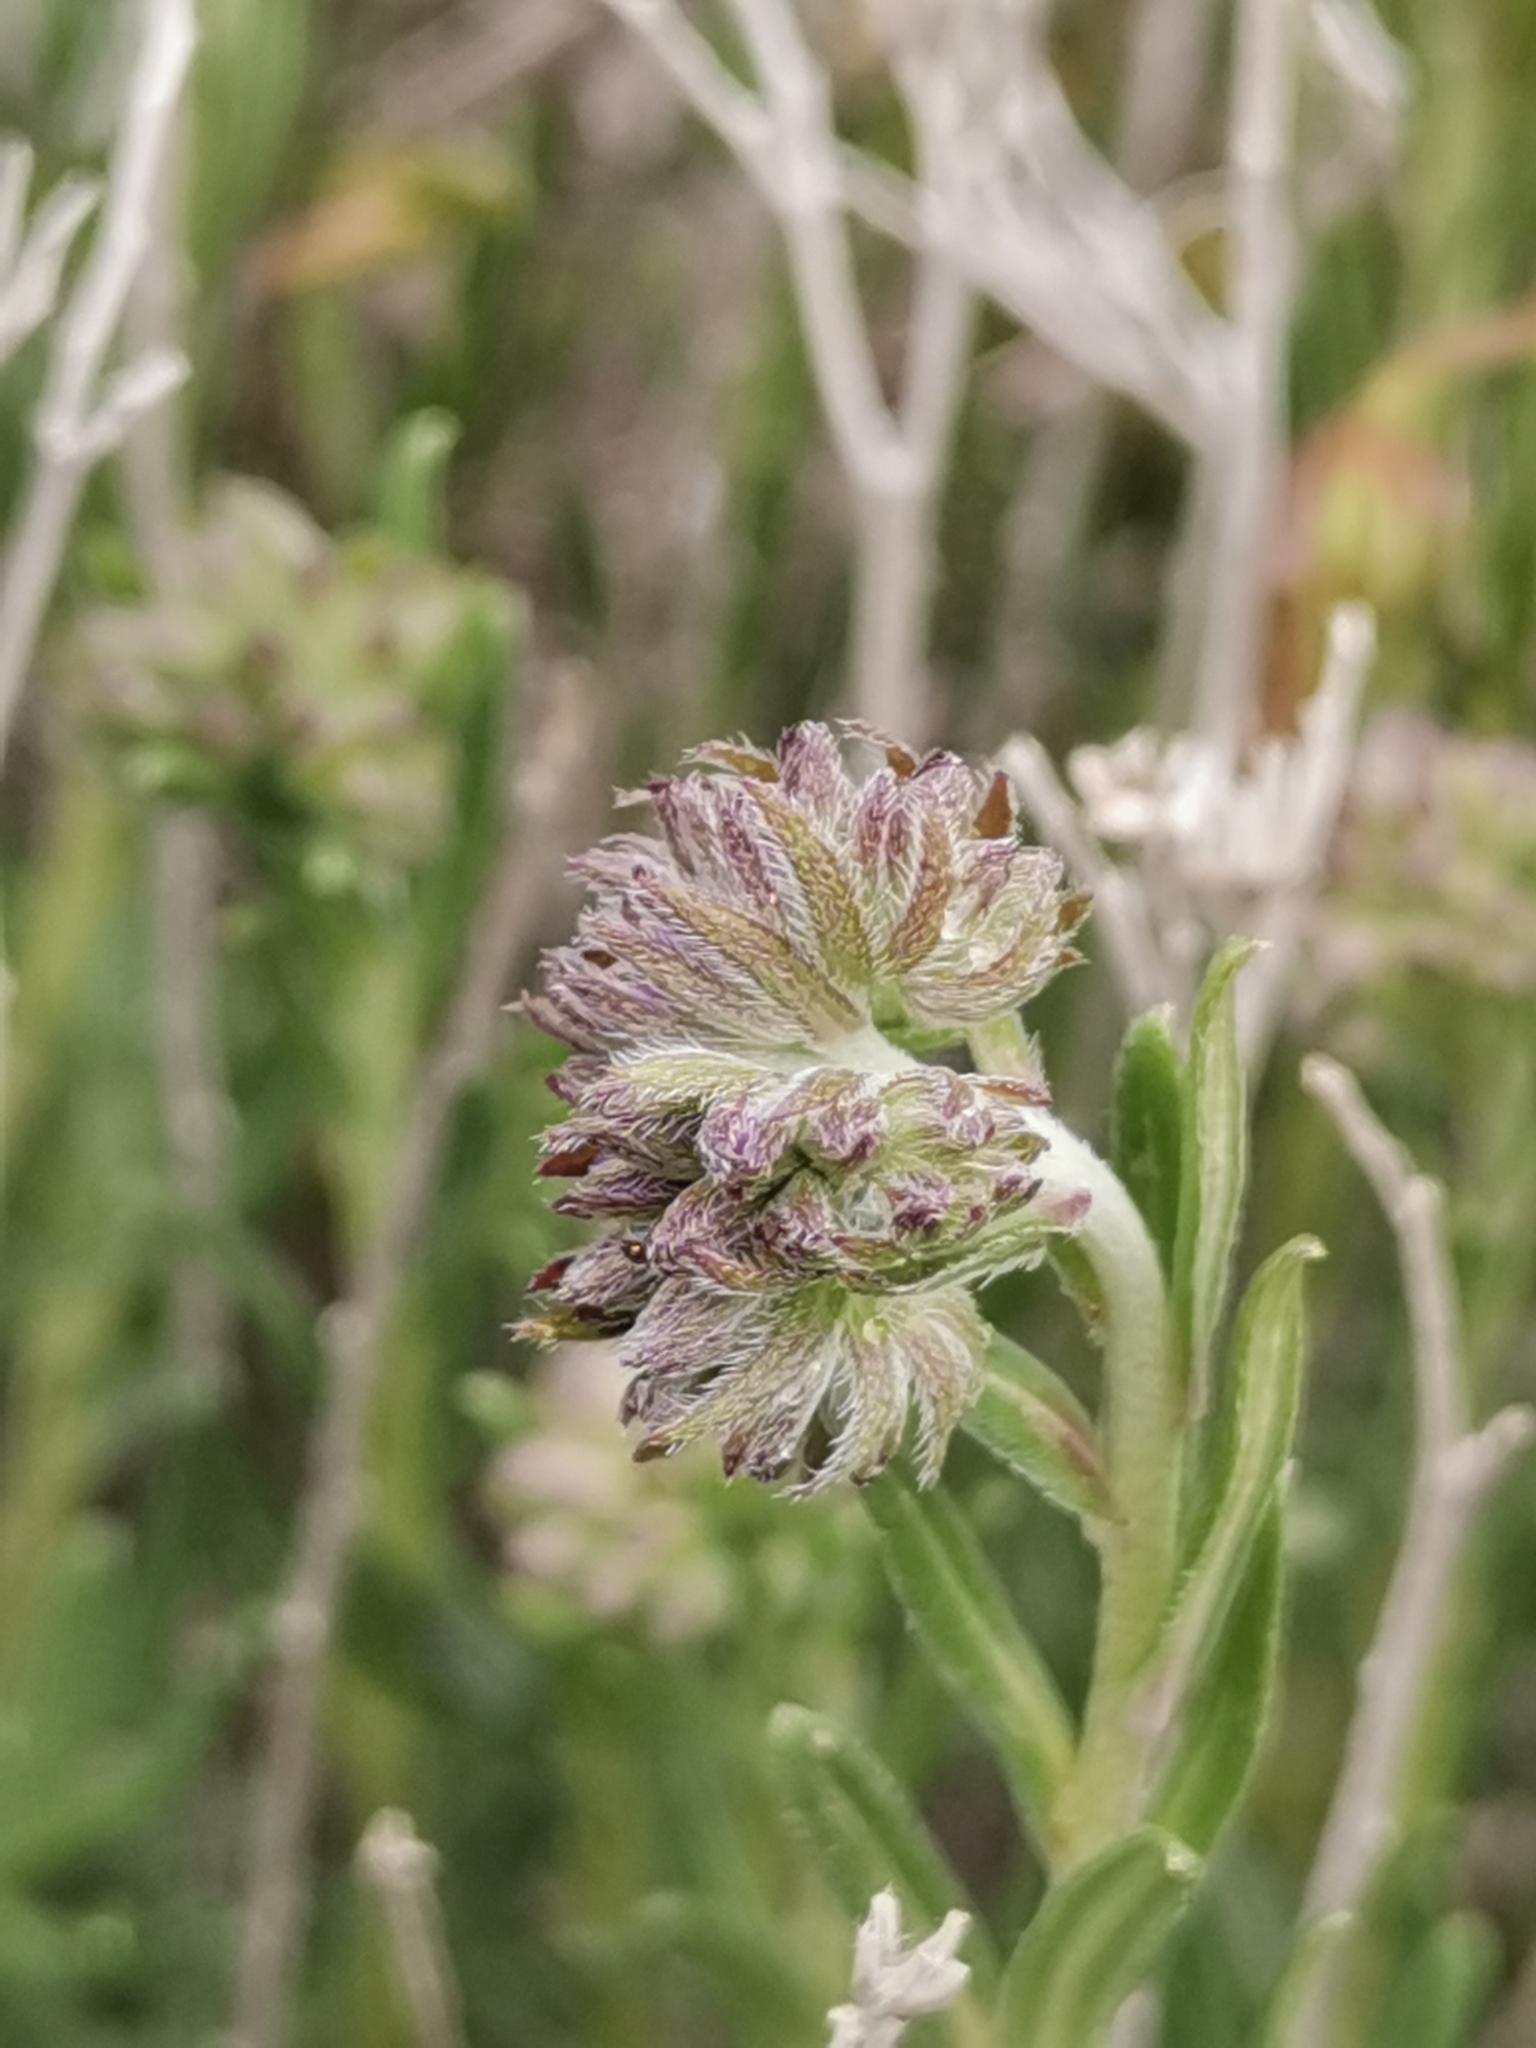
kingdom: Plantae
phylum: Tracheophyta
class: Magnoliopsida
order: Boraginales
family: Boraginaceae
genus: Moltkia
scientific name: Moltkia petraea
